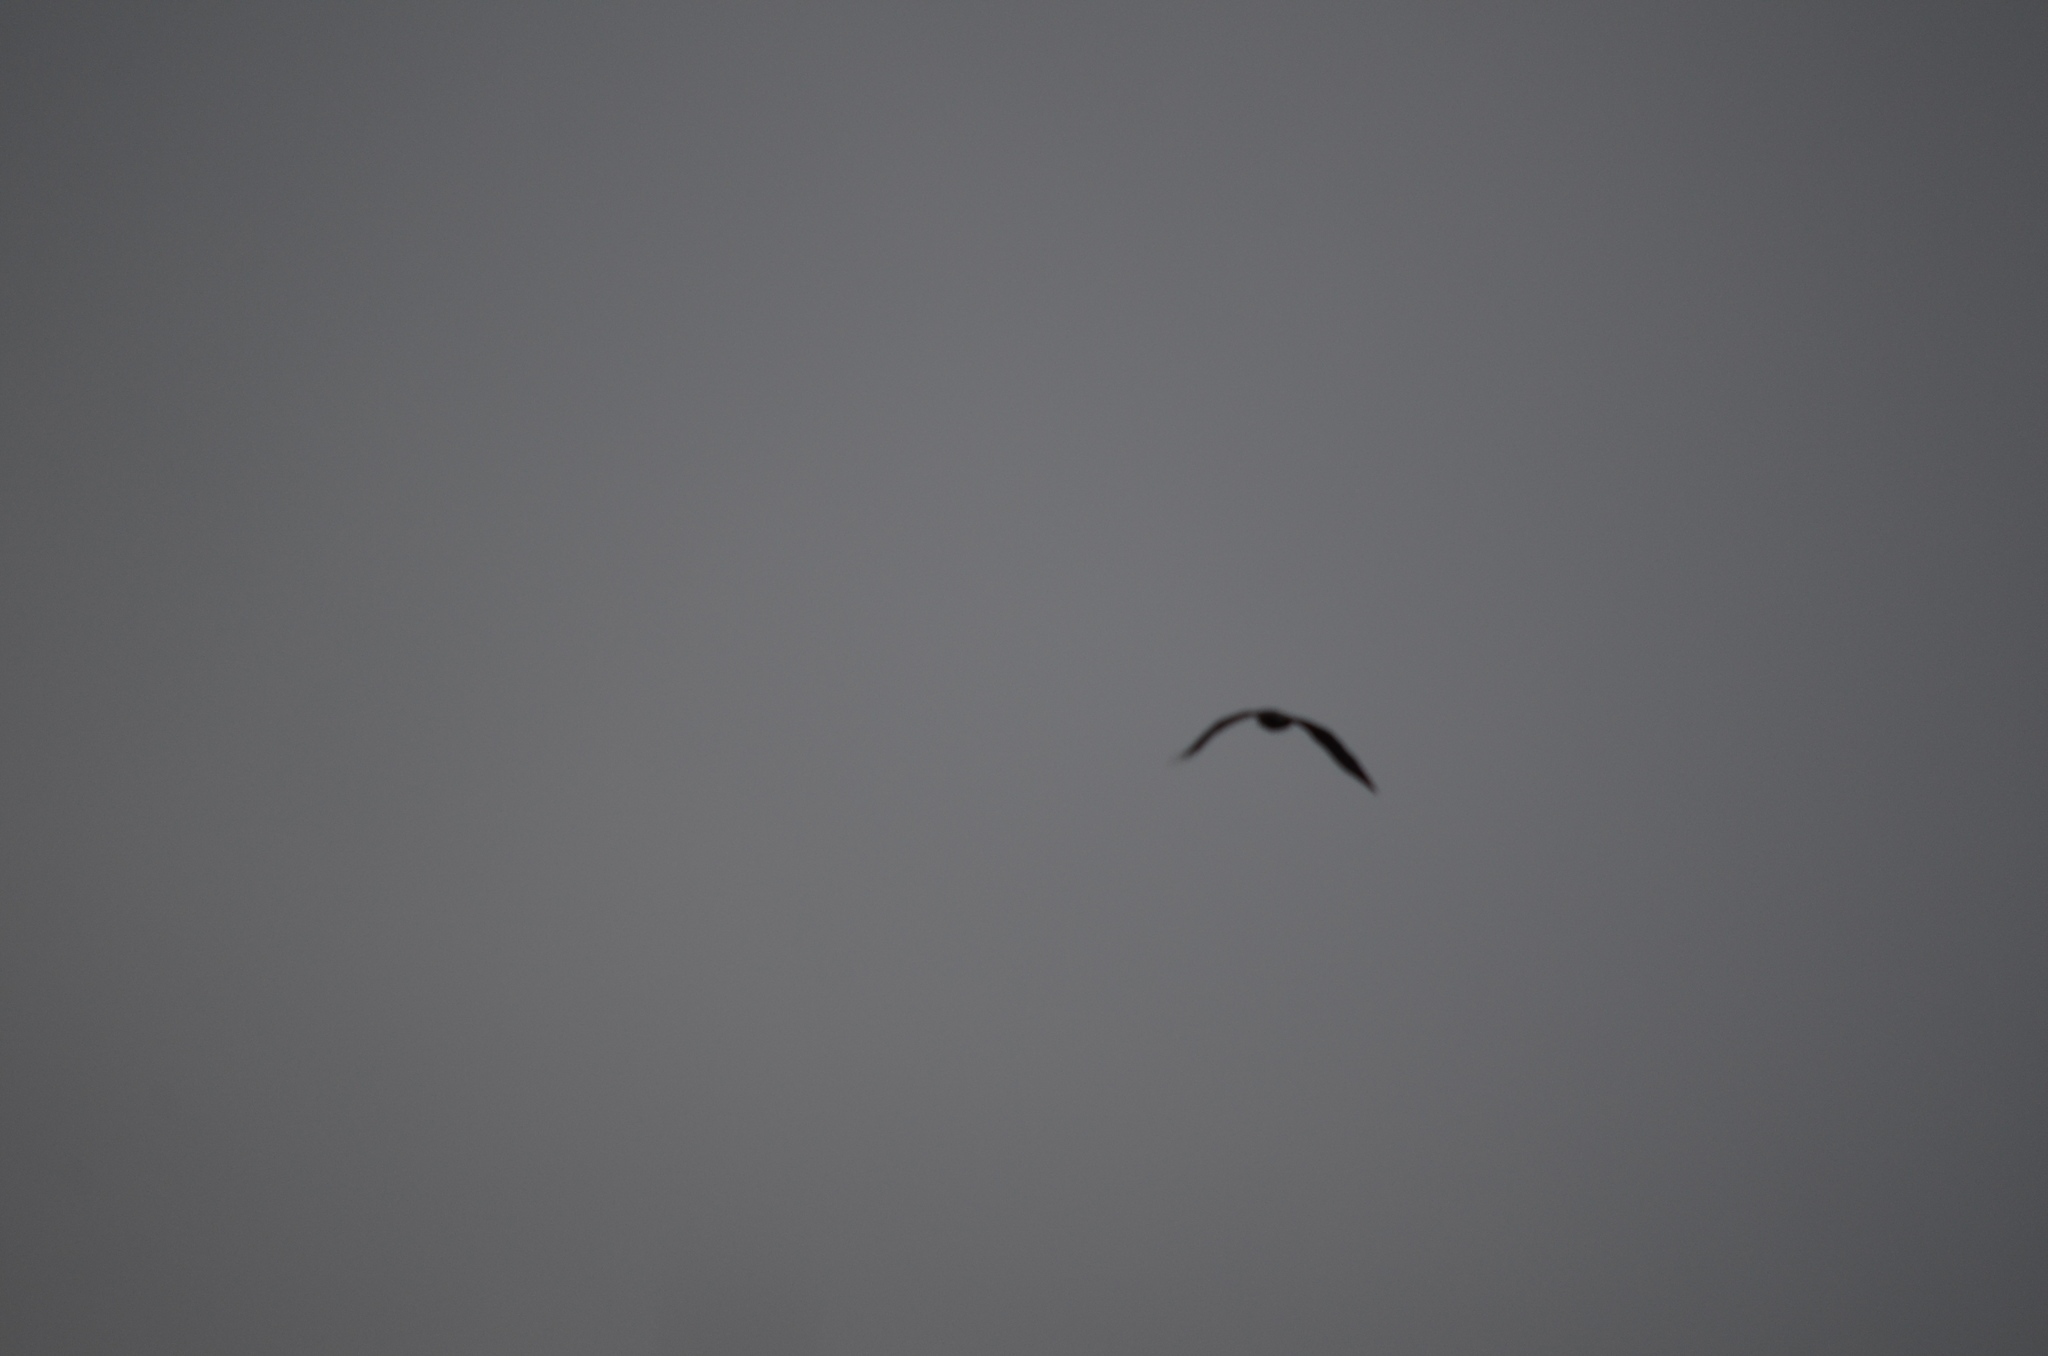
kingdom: Animalia
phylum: Chordata
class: Aves
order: Passeriformes
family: Corvidae
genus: Corvus
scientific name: Corvus corax
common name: Common raven
